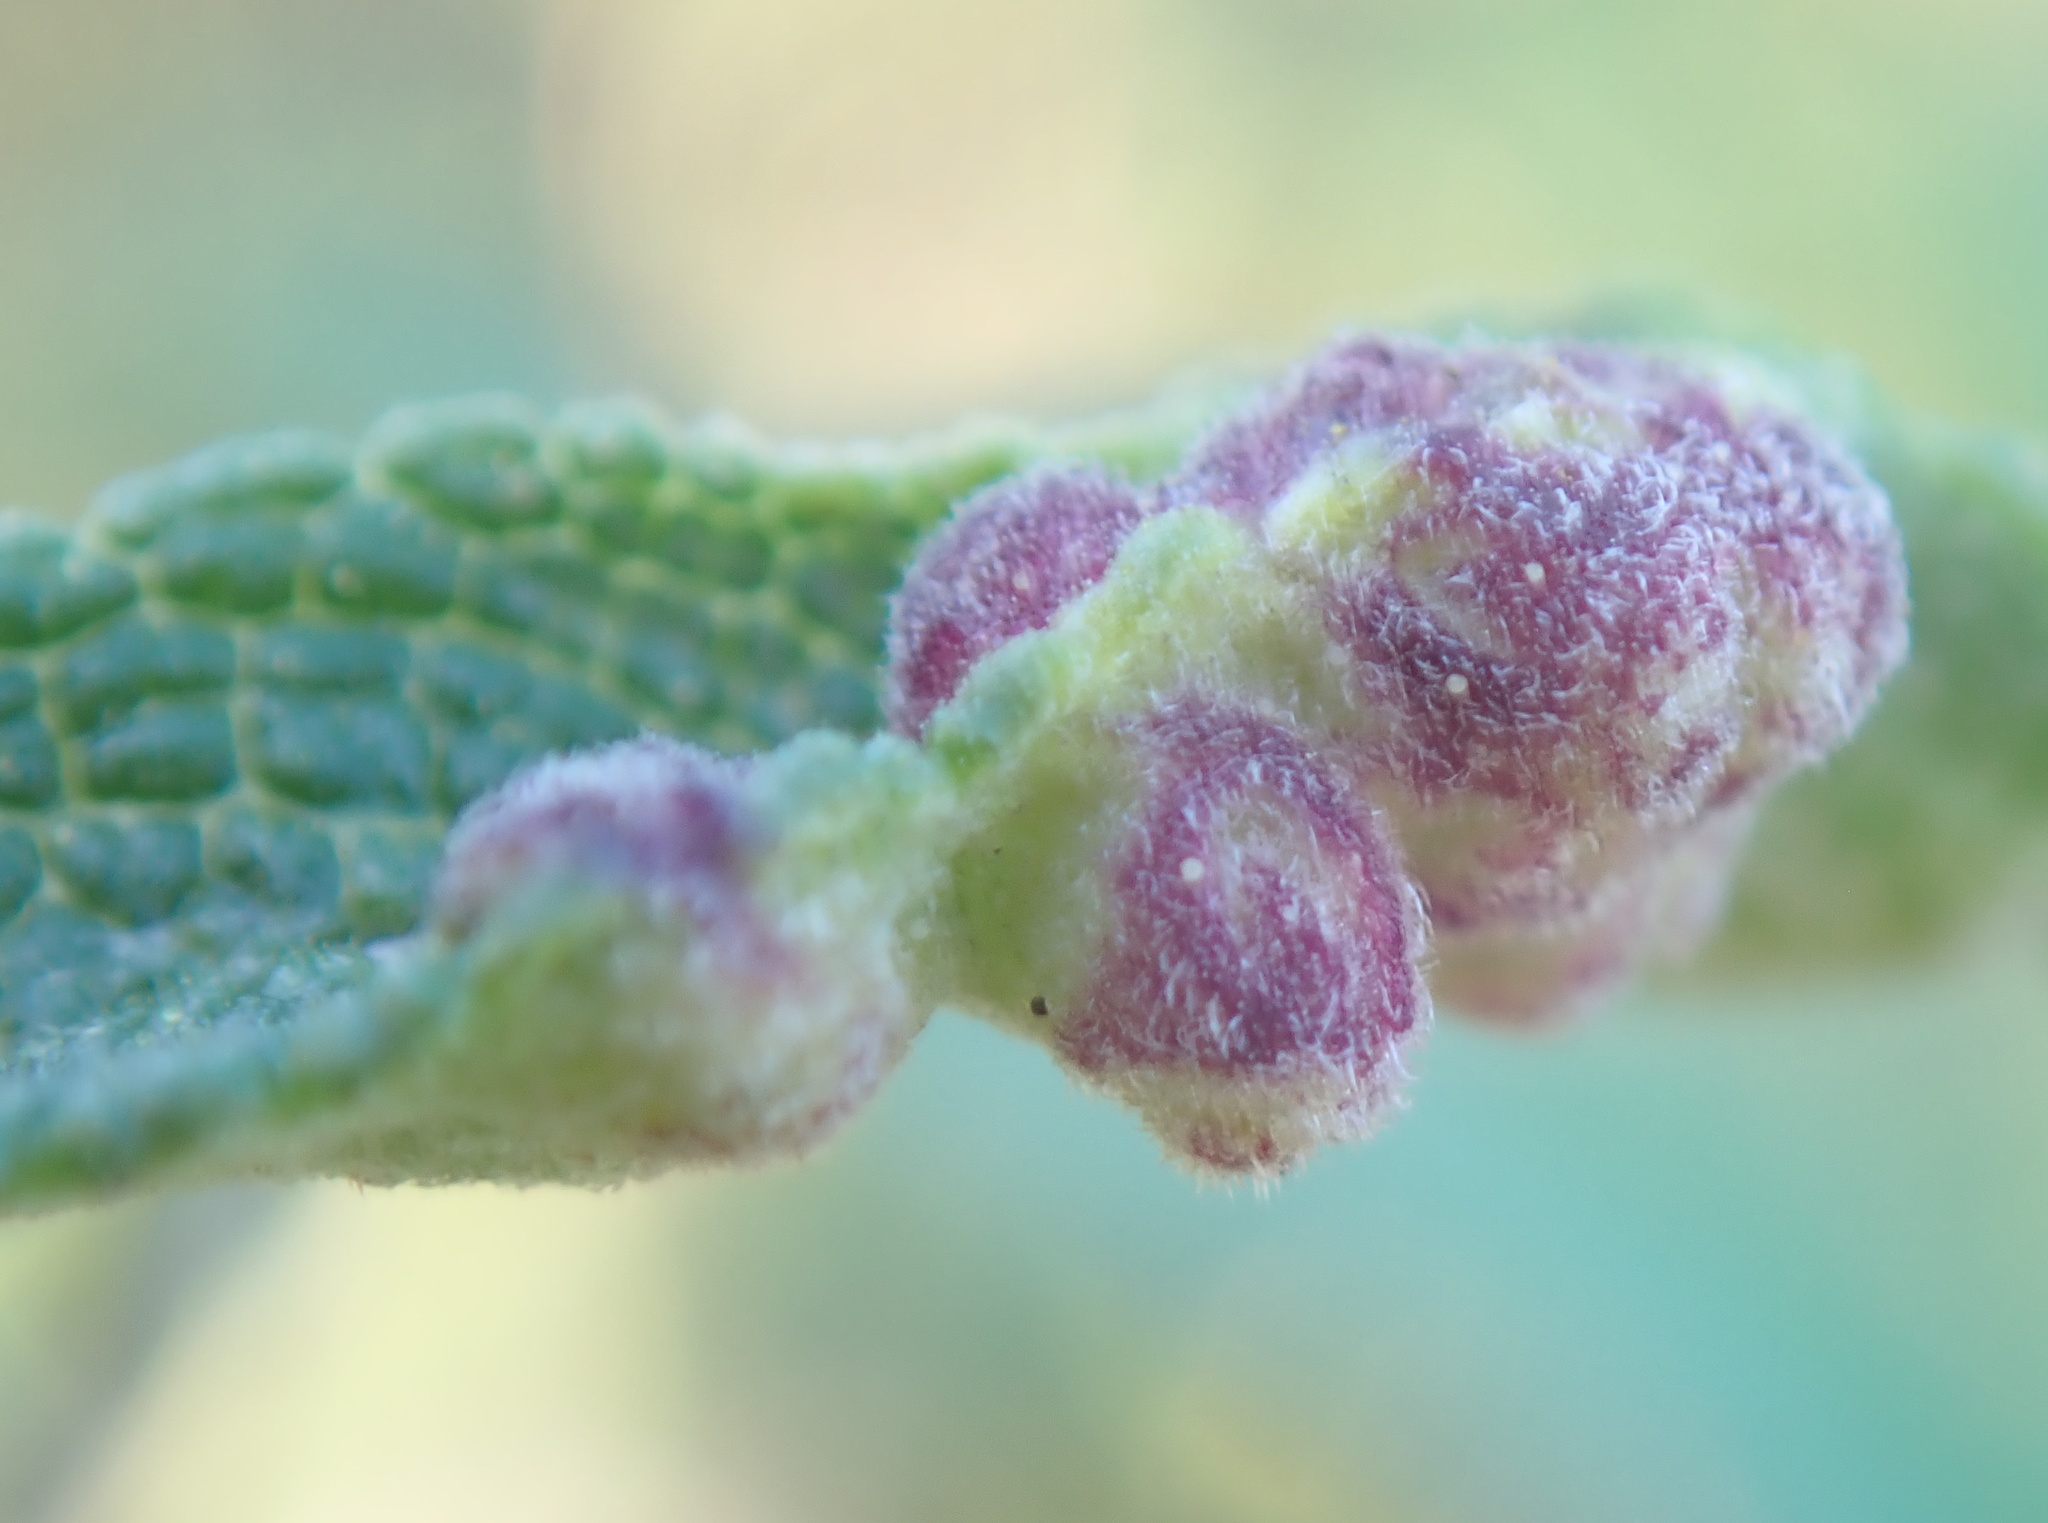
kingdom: Animalia
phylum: Arthropoda
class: Insecta
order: Diptera
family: Cecidomyiidae
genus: Rhopalomyia
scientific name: Rhopalomyia audibertiae
